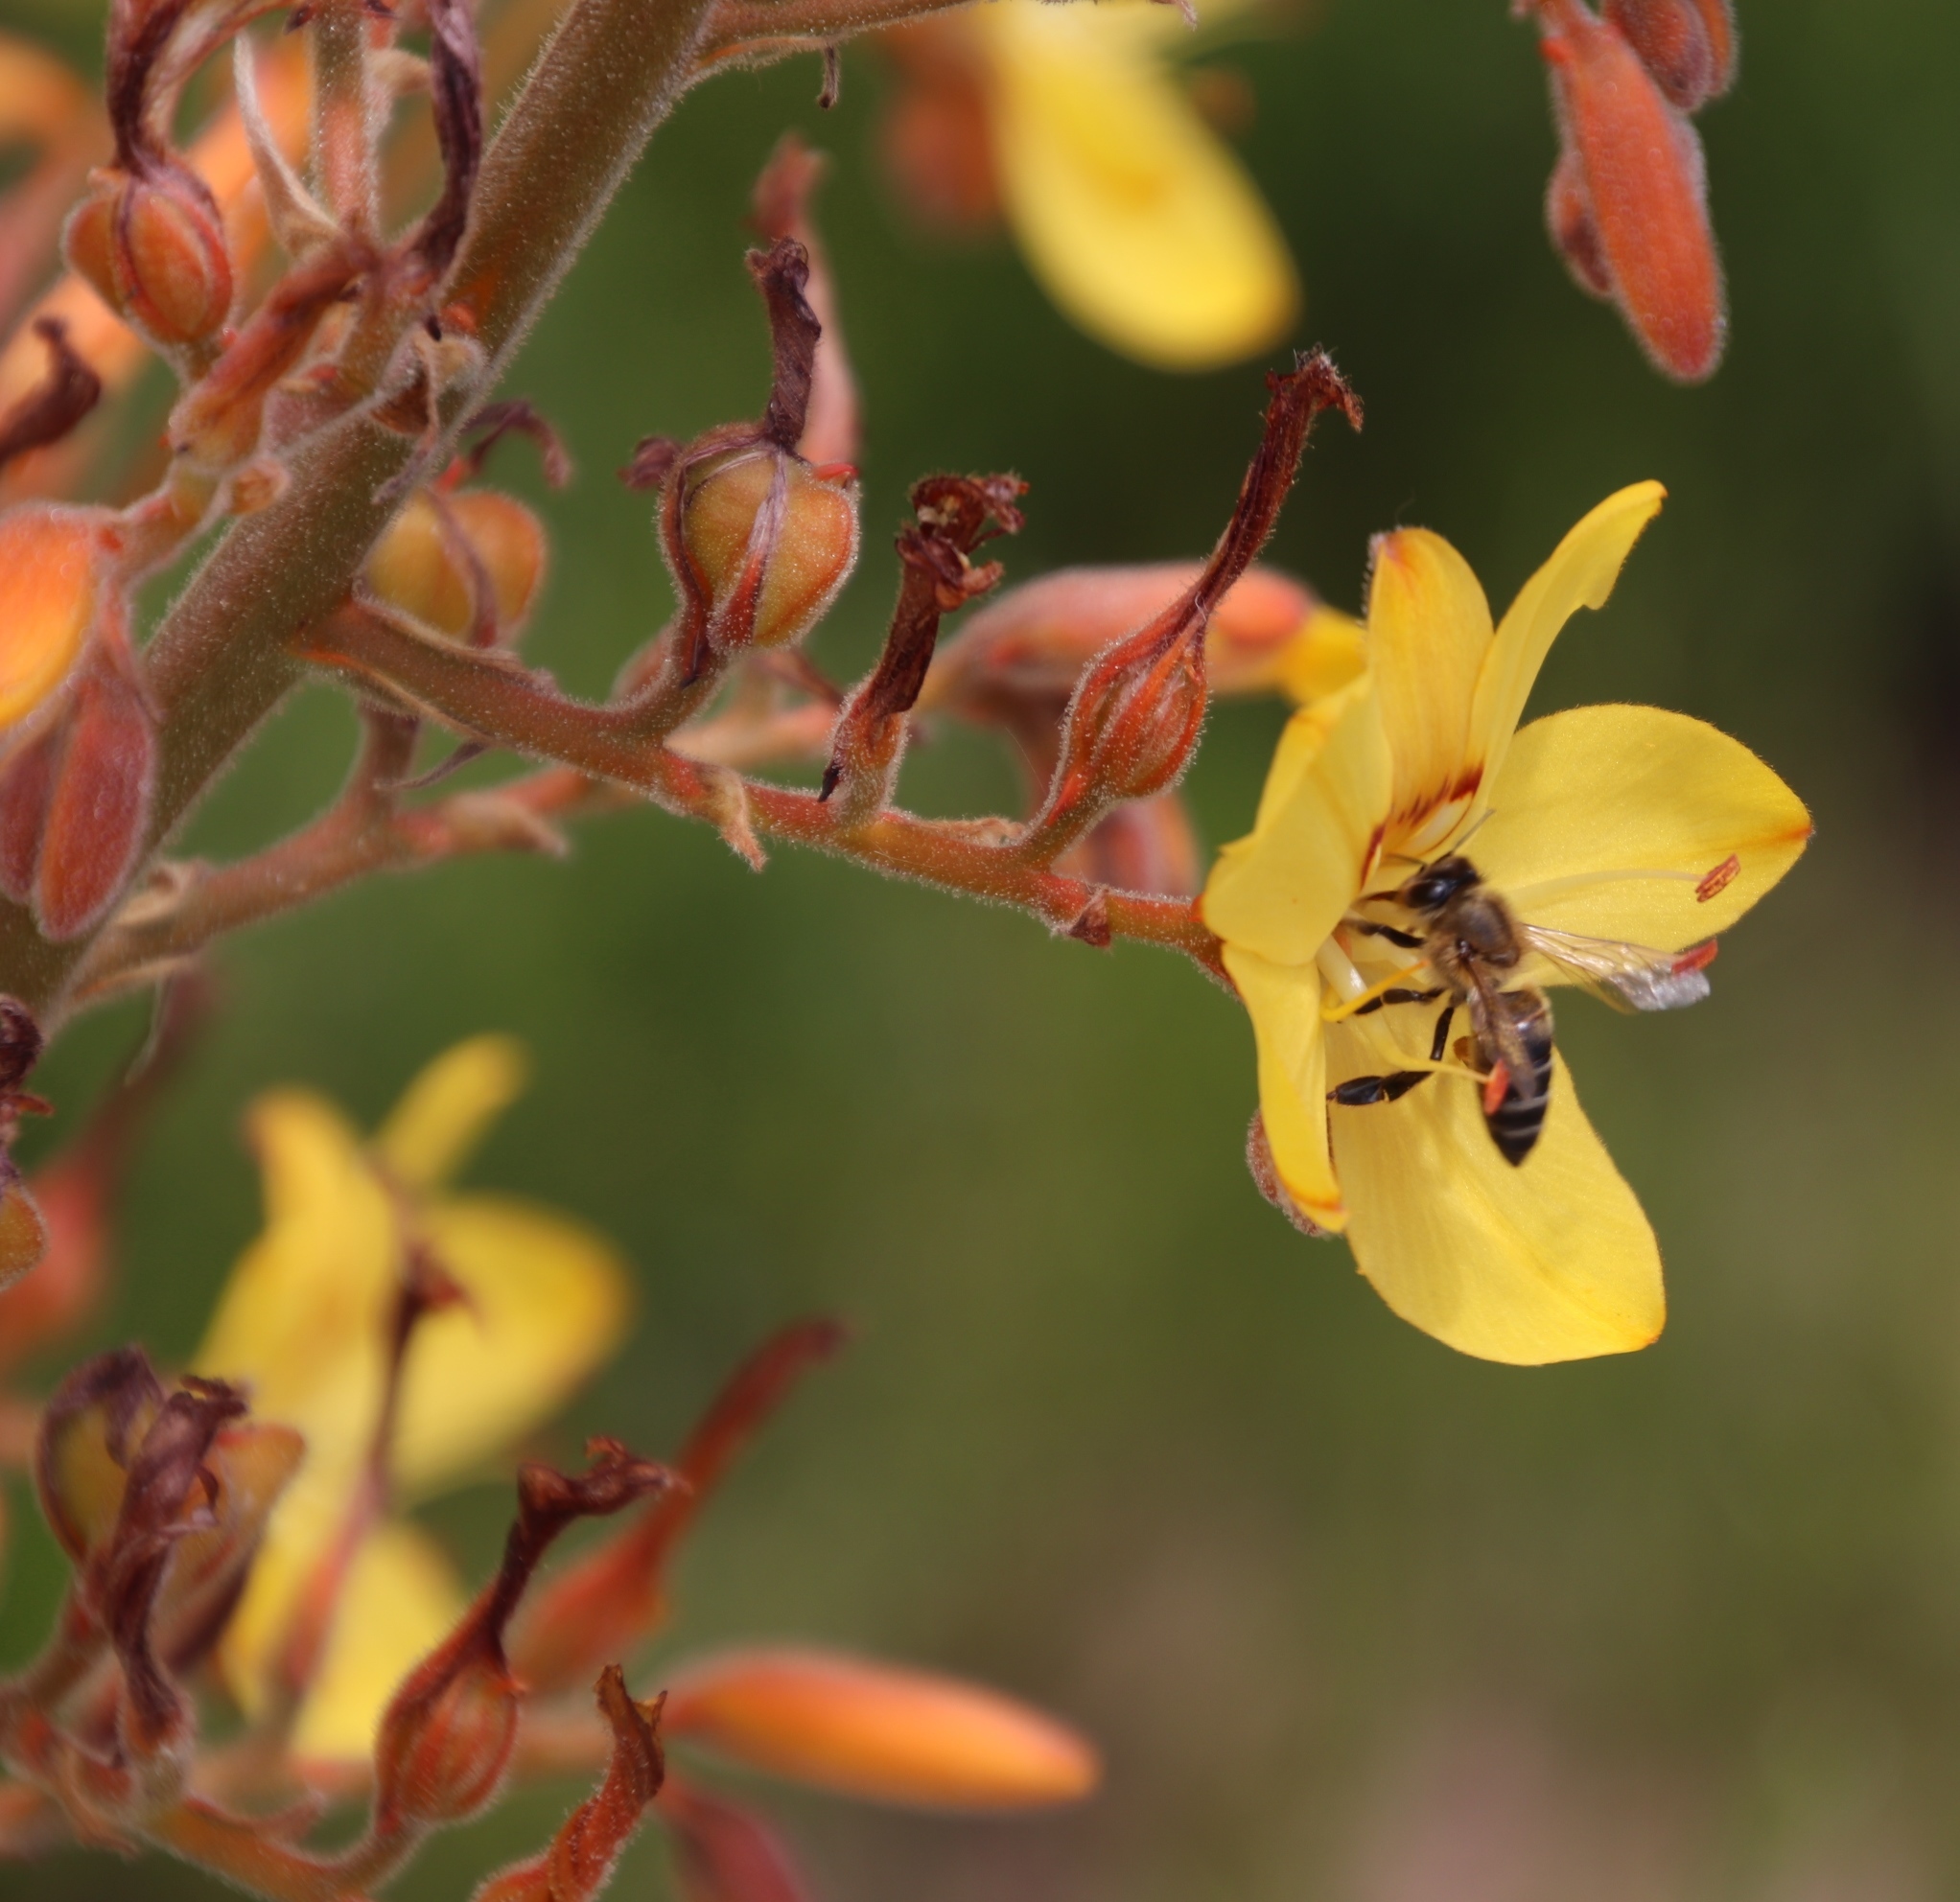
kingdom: Animalia
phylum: Arthropoda
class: Insecta
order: Hymenoptera
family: Apidae
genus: Apis
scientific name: Apis mellifera
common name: Honey bee
